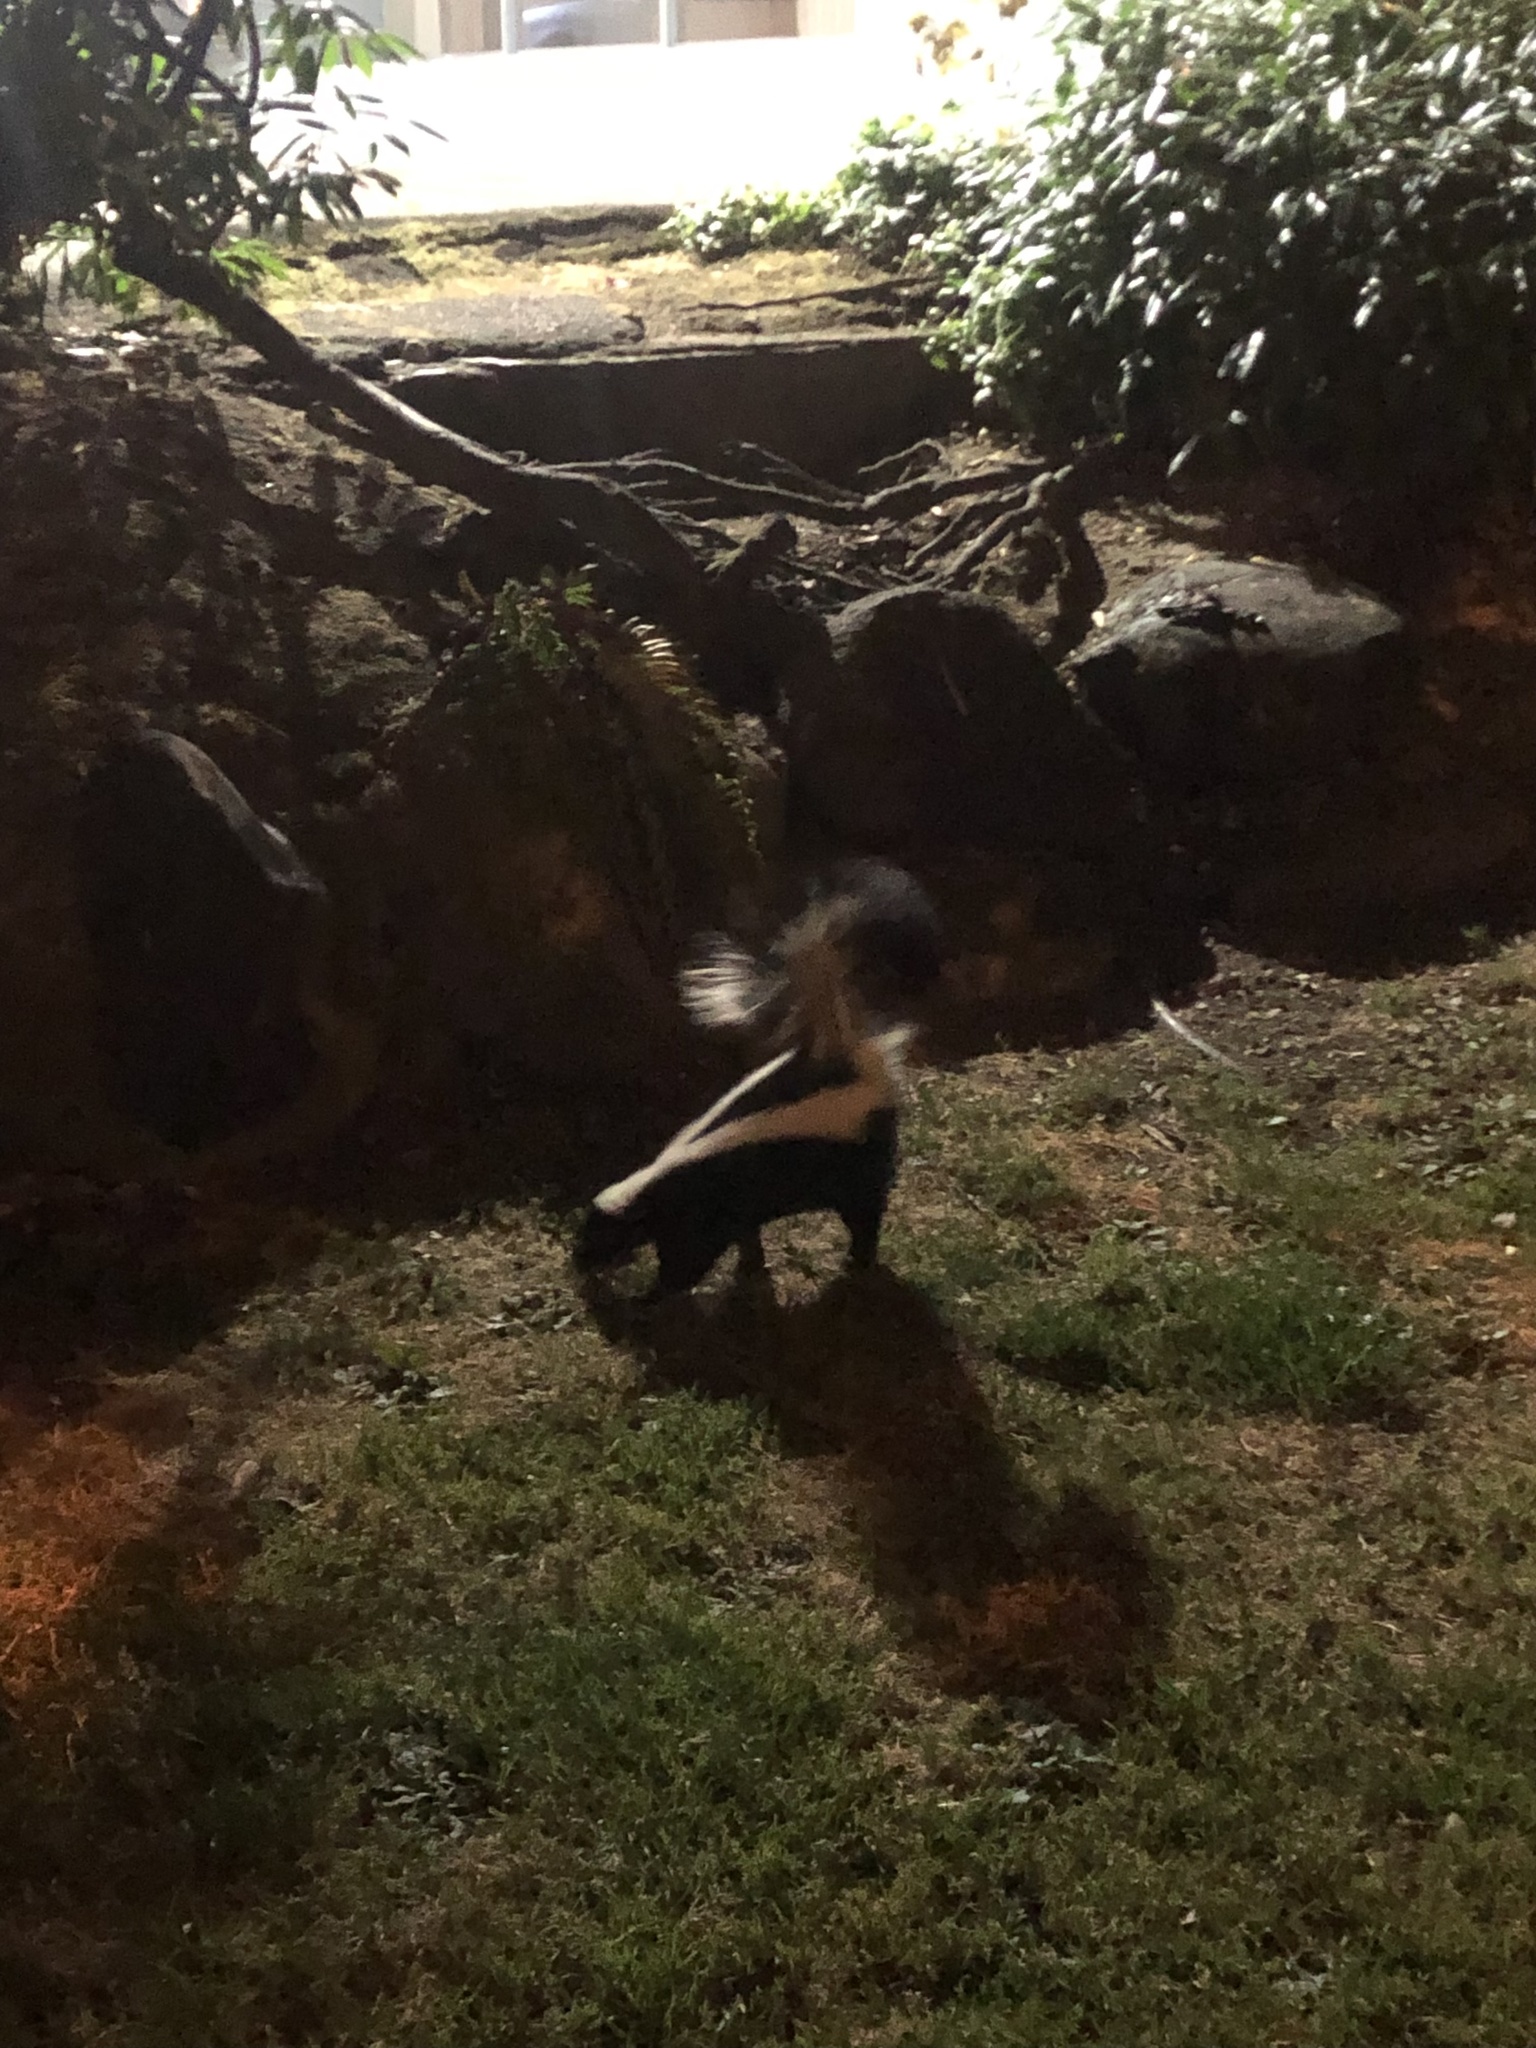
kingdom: Animalia
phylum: Chordata
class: Mammalia
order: Carnivora
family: Mephitidae
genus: Mephitis
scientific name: Mephitis mephitis
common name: Striped skunk
